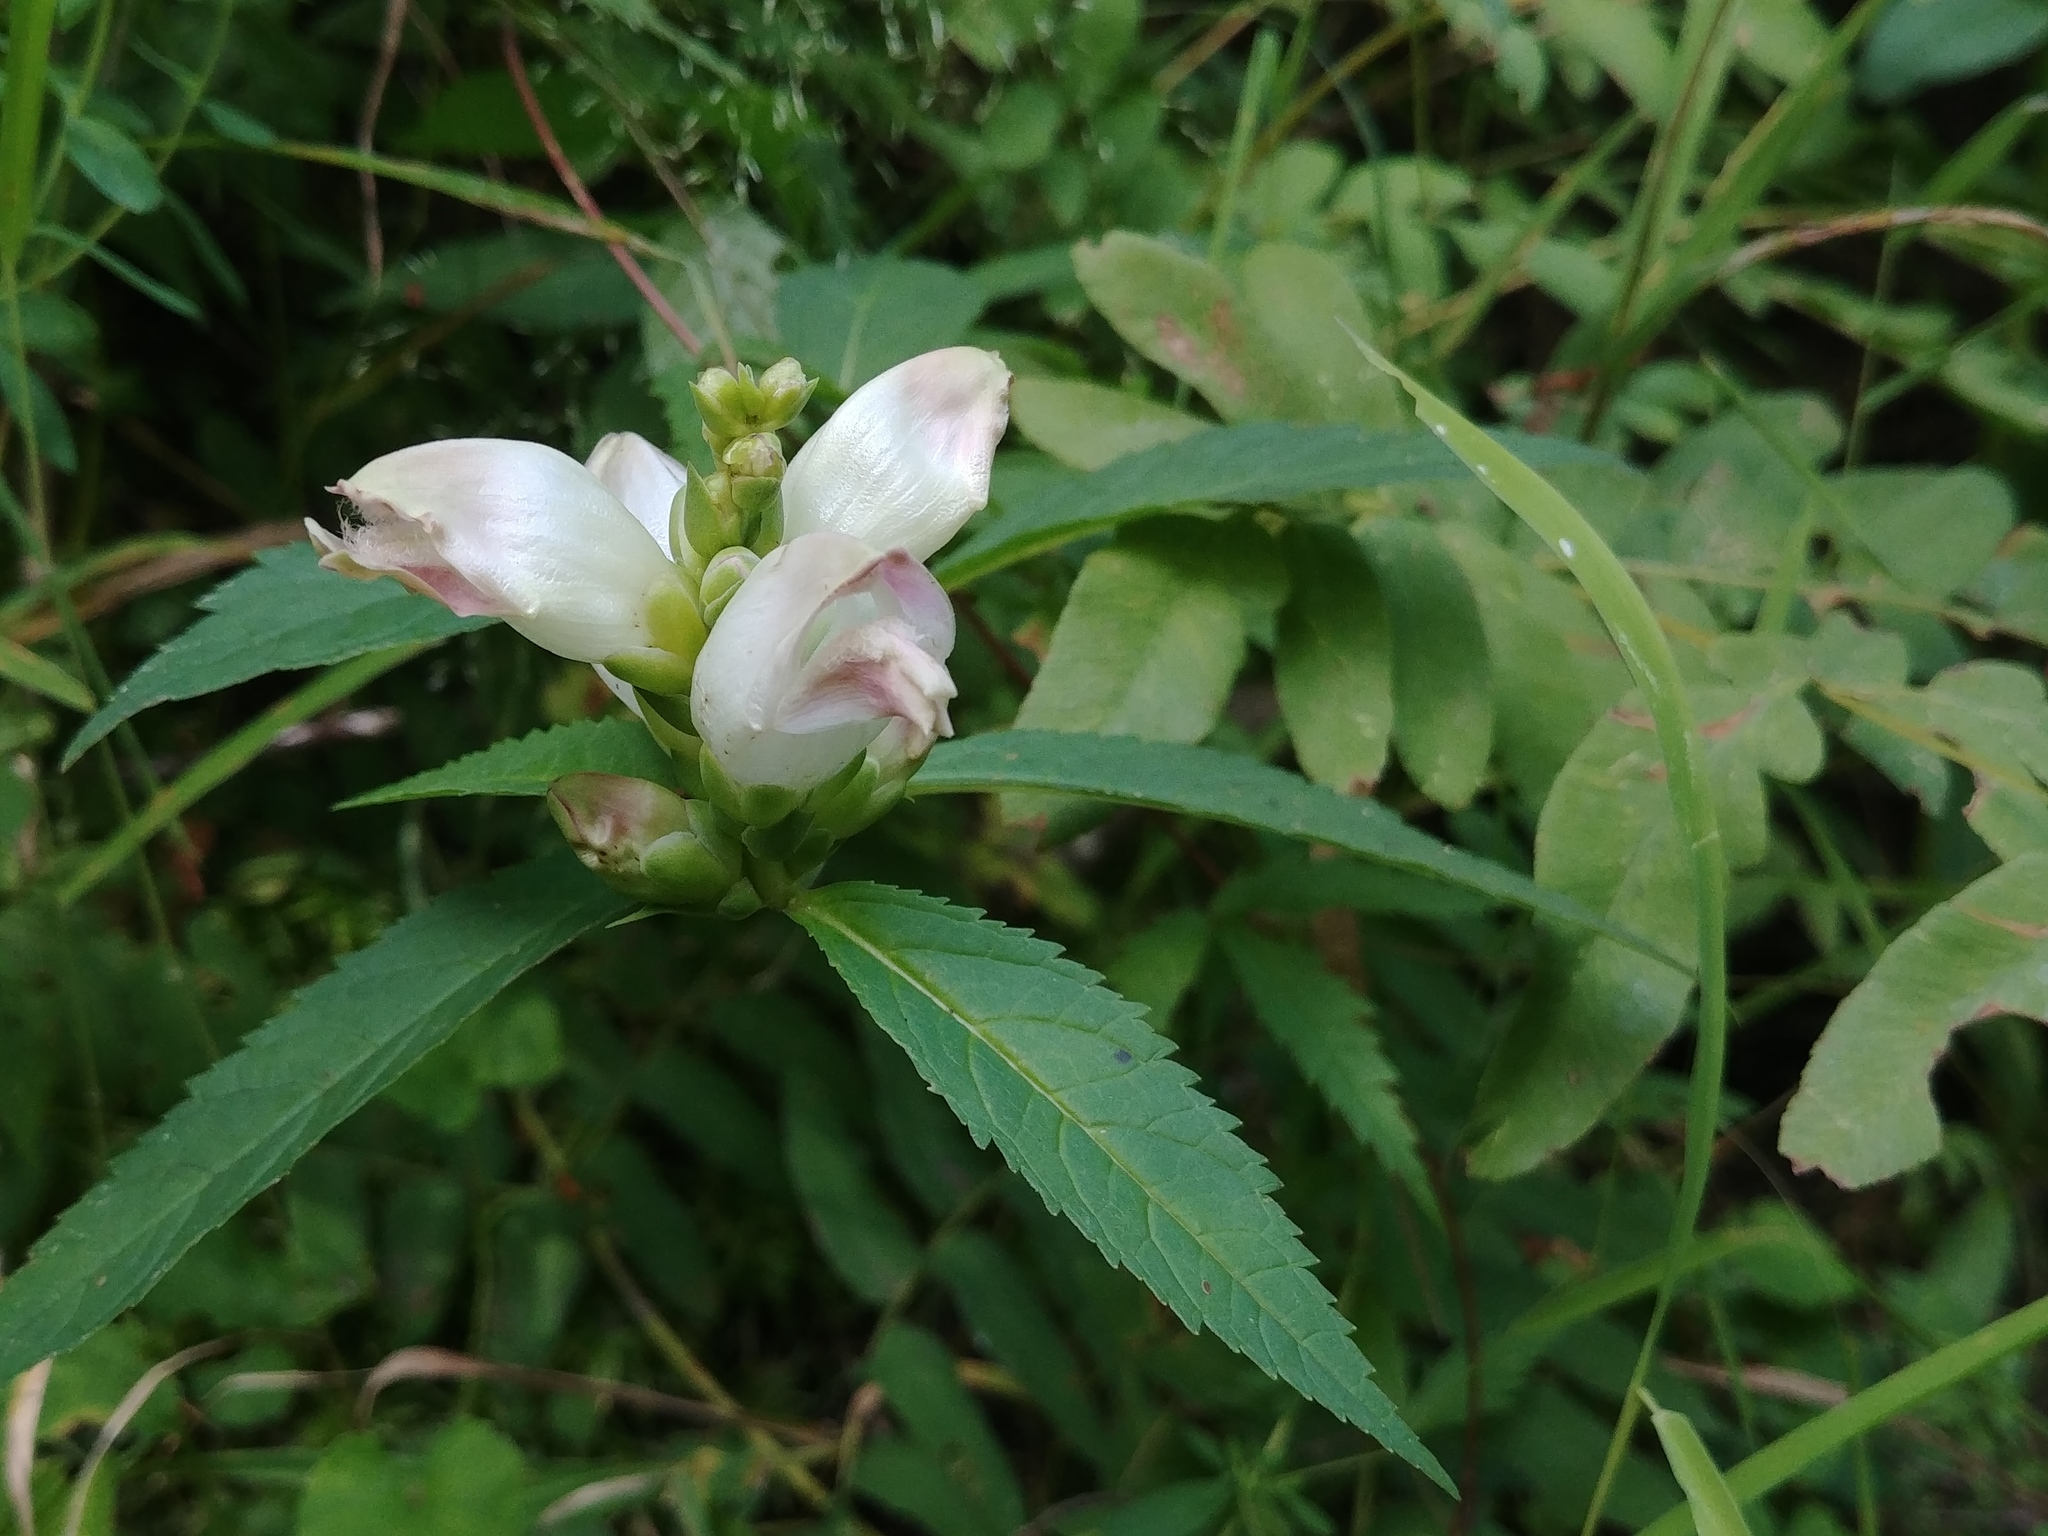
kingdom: Plantae
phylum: Tracheophyta
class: Magnoliopsida
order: Lamiales
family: Plantaginaceae
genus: Chelone
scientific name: Chelone glabra
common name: Snakehead
